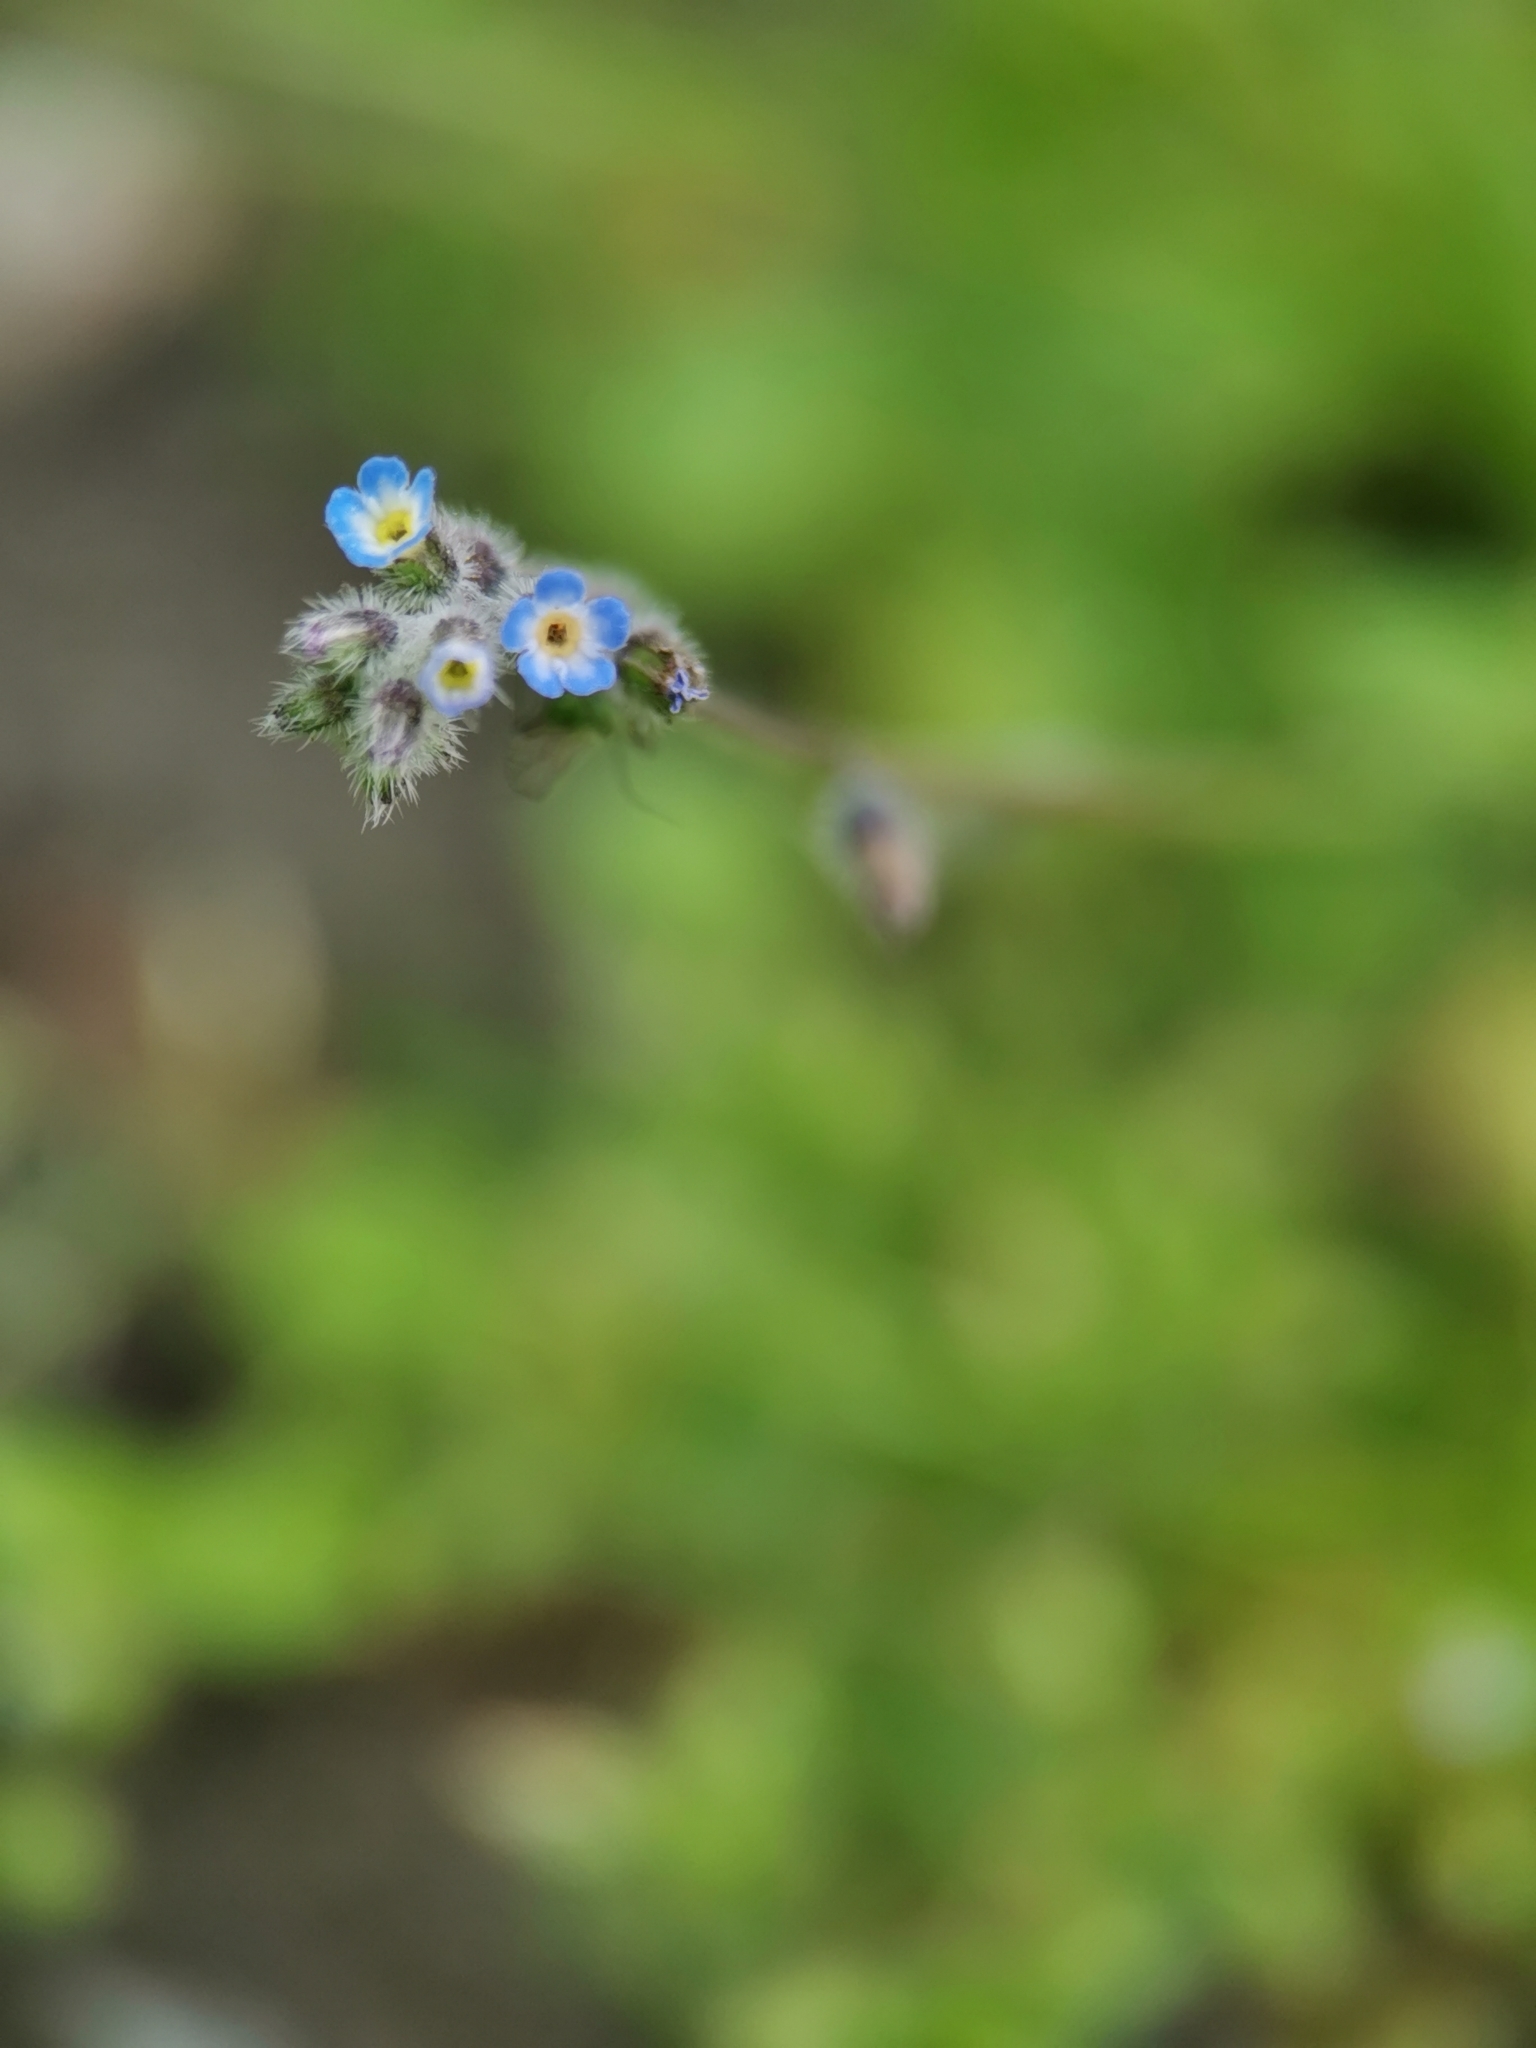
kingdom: Plantae
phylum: Tracheophyta
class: Magnoliopsida
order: Boraginales
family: Boraginaceae
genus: Myosotis
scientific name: Myosotis ramosissima
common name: Early forget-me-not
